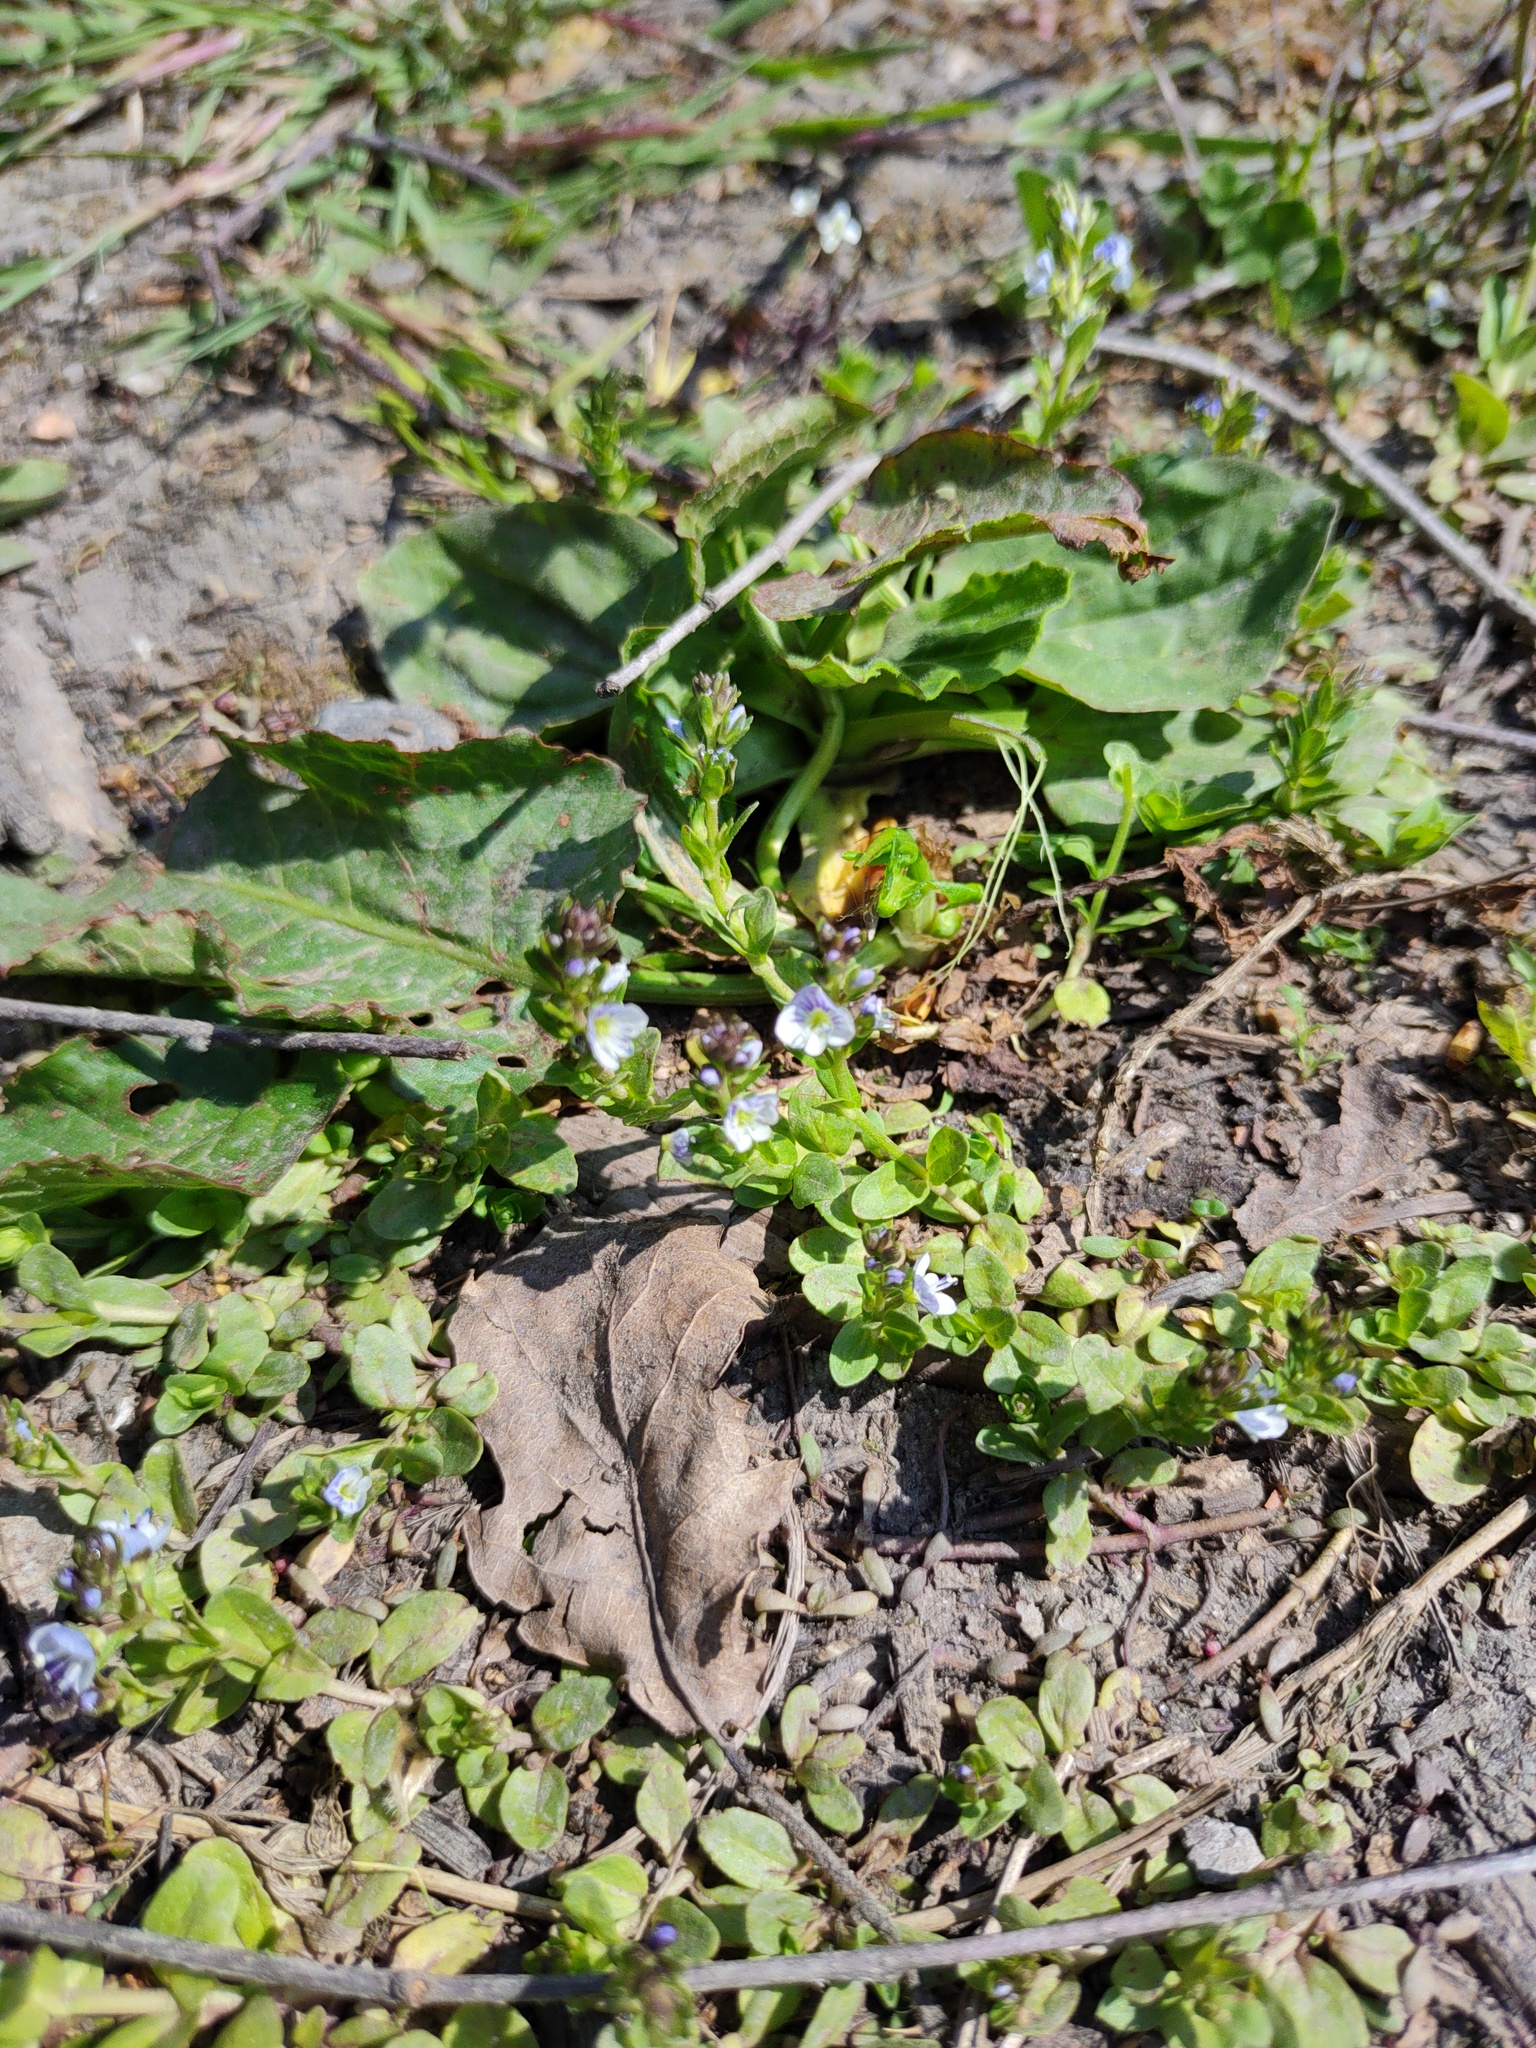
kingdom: Plantae
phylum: Tracheophyta
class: Magnoliopsida
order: Lamiales
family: Plantaginaceae
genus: Veronica
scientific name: Veronica serpyllifolia
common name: Thyme-leaved speedwell
